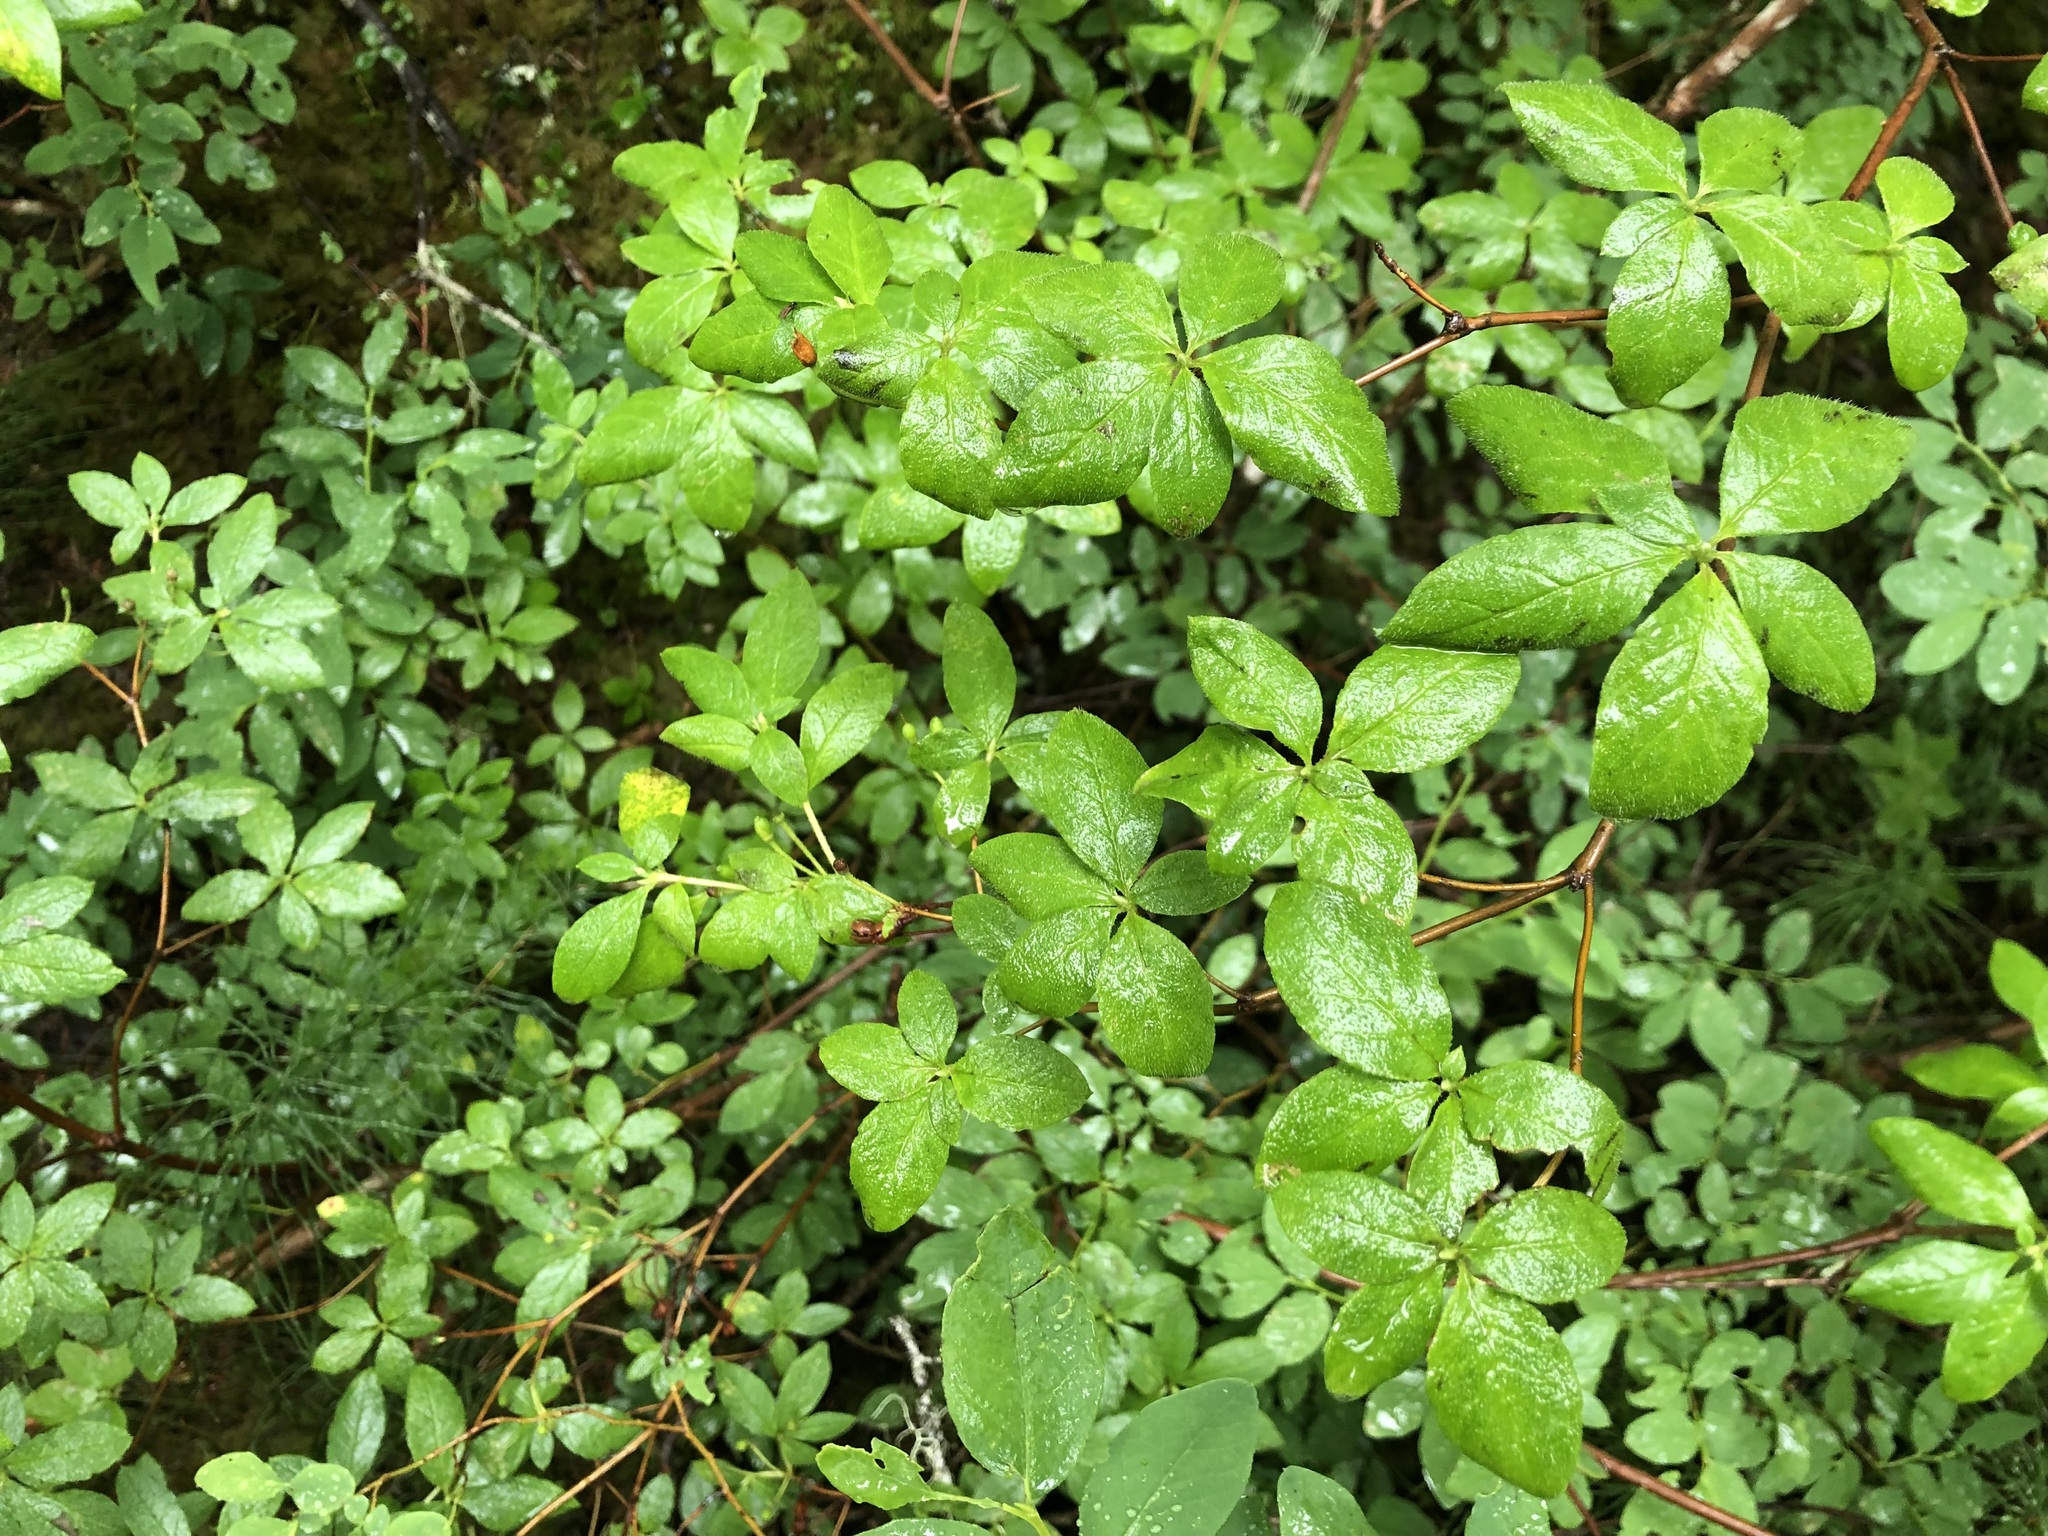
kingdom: Plantae
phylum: Tracheophyta
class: Magnoliopsida
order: Ericales
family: Ericaceae
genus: Rhododendron
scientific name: Rhododendron menziesii
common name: Pacific menziesia
